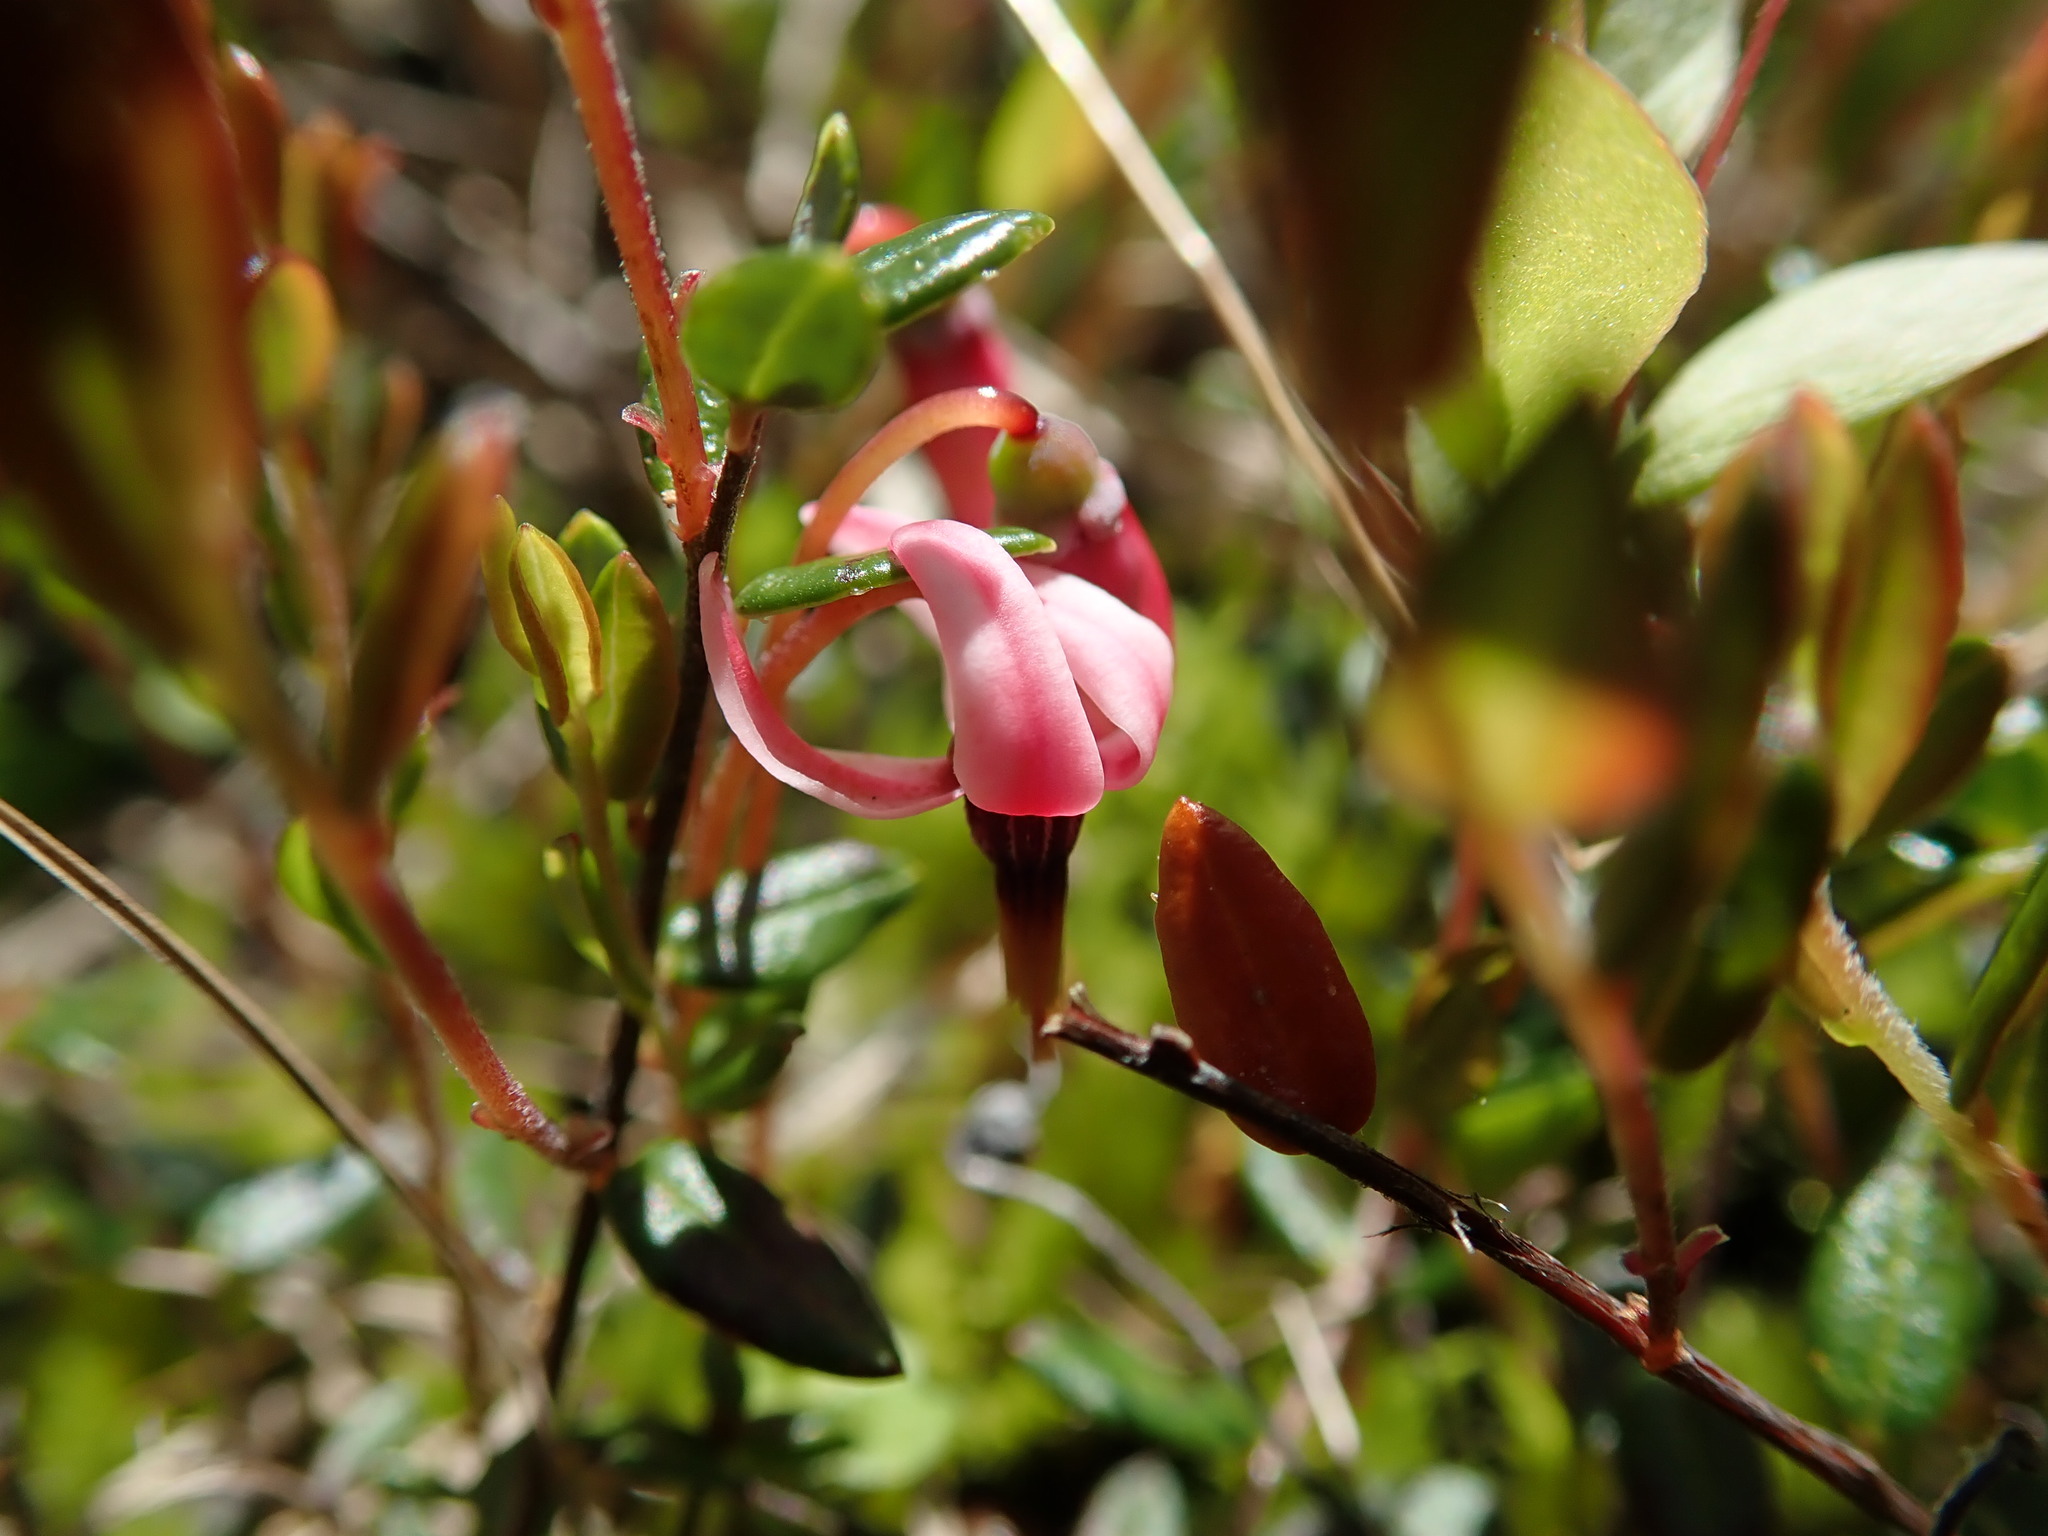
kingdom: Plantae
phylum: Tracheophyta
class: Magnoliopsida
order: Ericales
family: Ericaceae
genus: Vaccinium
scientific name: Vaccinium oxycoccos
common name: Cranberry
